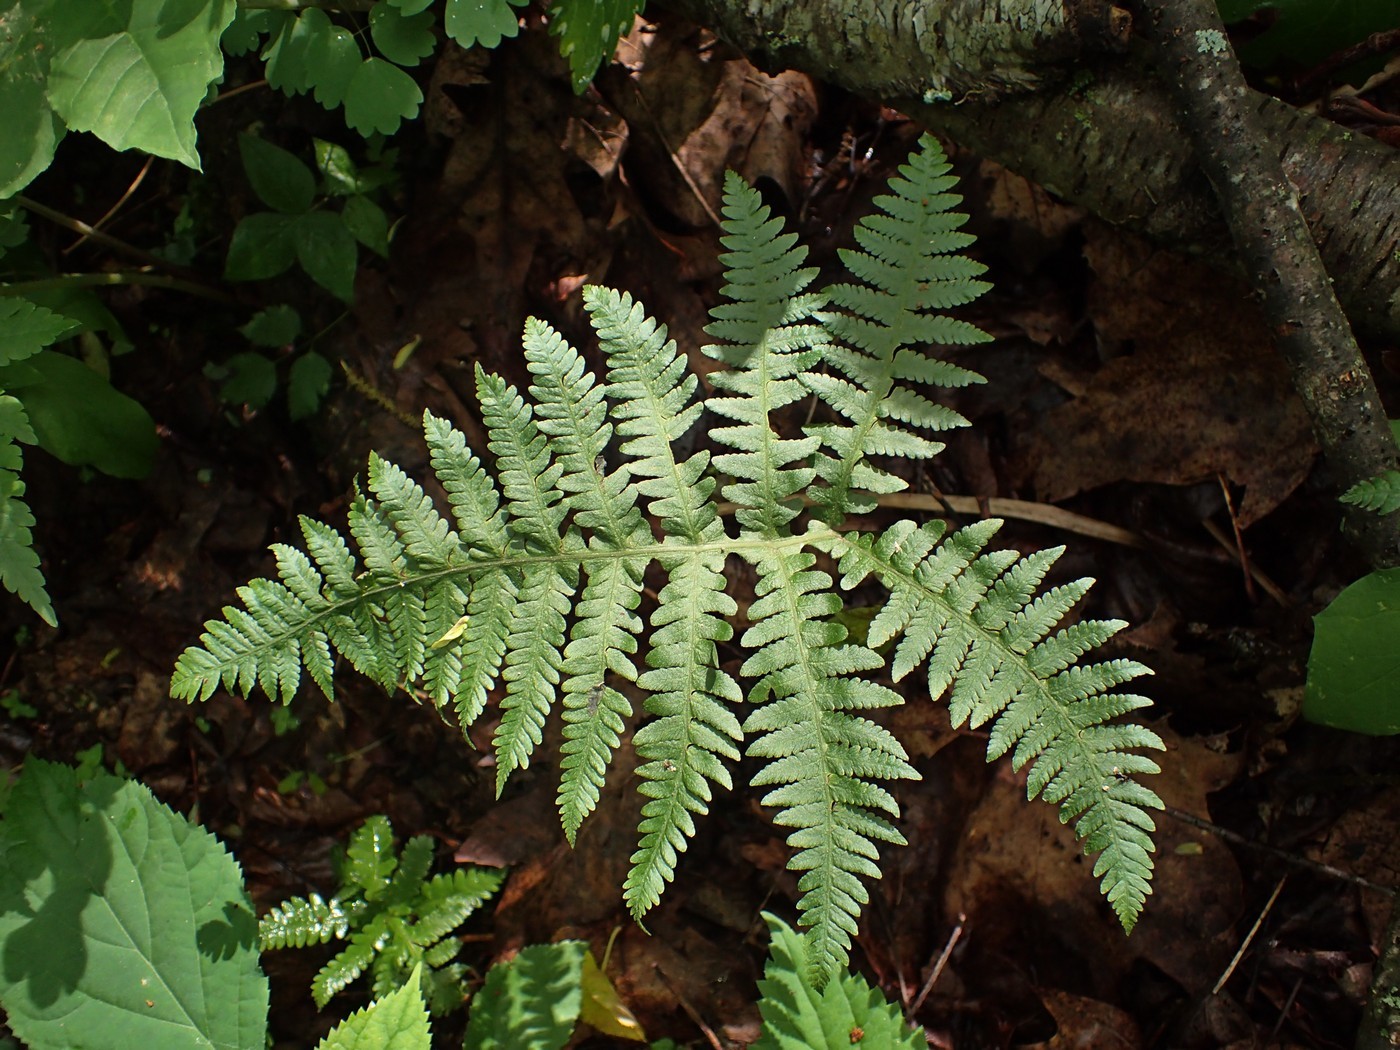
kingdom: Plantae
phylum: Tracheophyta
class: Polypodiopsida
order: Polypodiales
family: Thelypteridaceae
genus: Phegopteris
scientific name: Phegopteris hexagonoptera
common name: Broad beech fern
